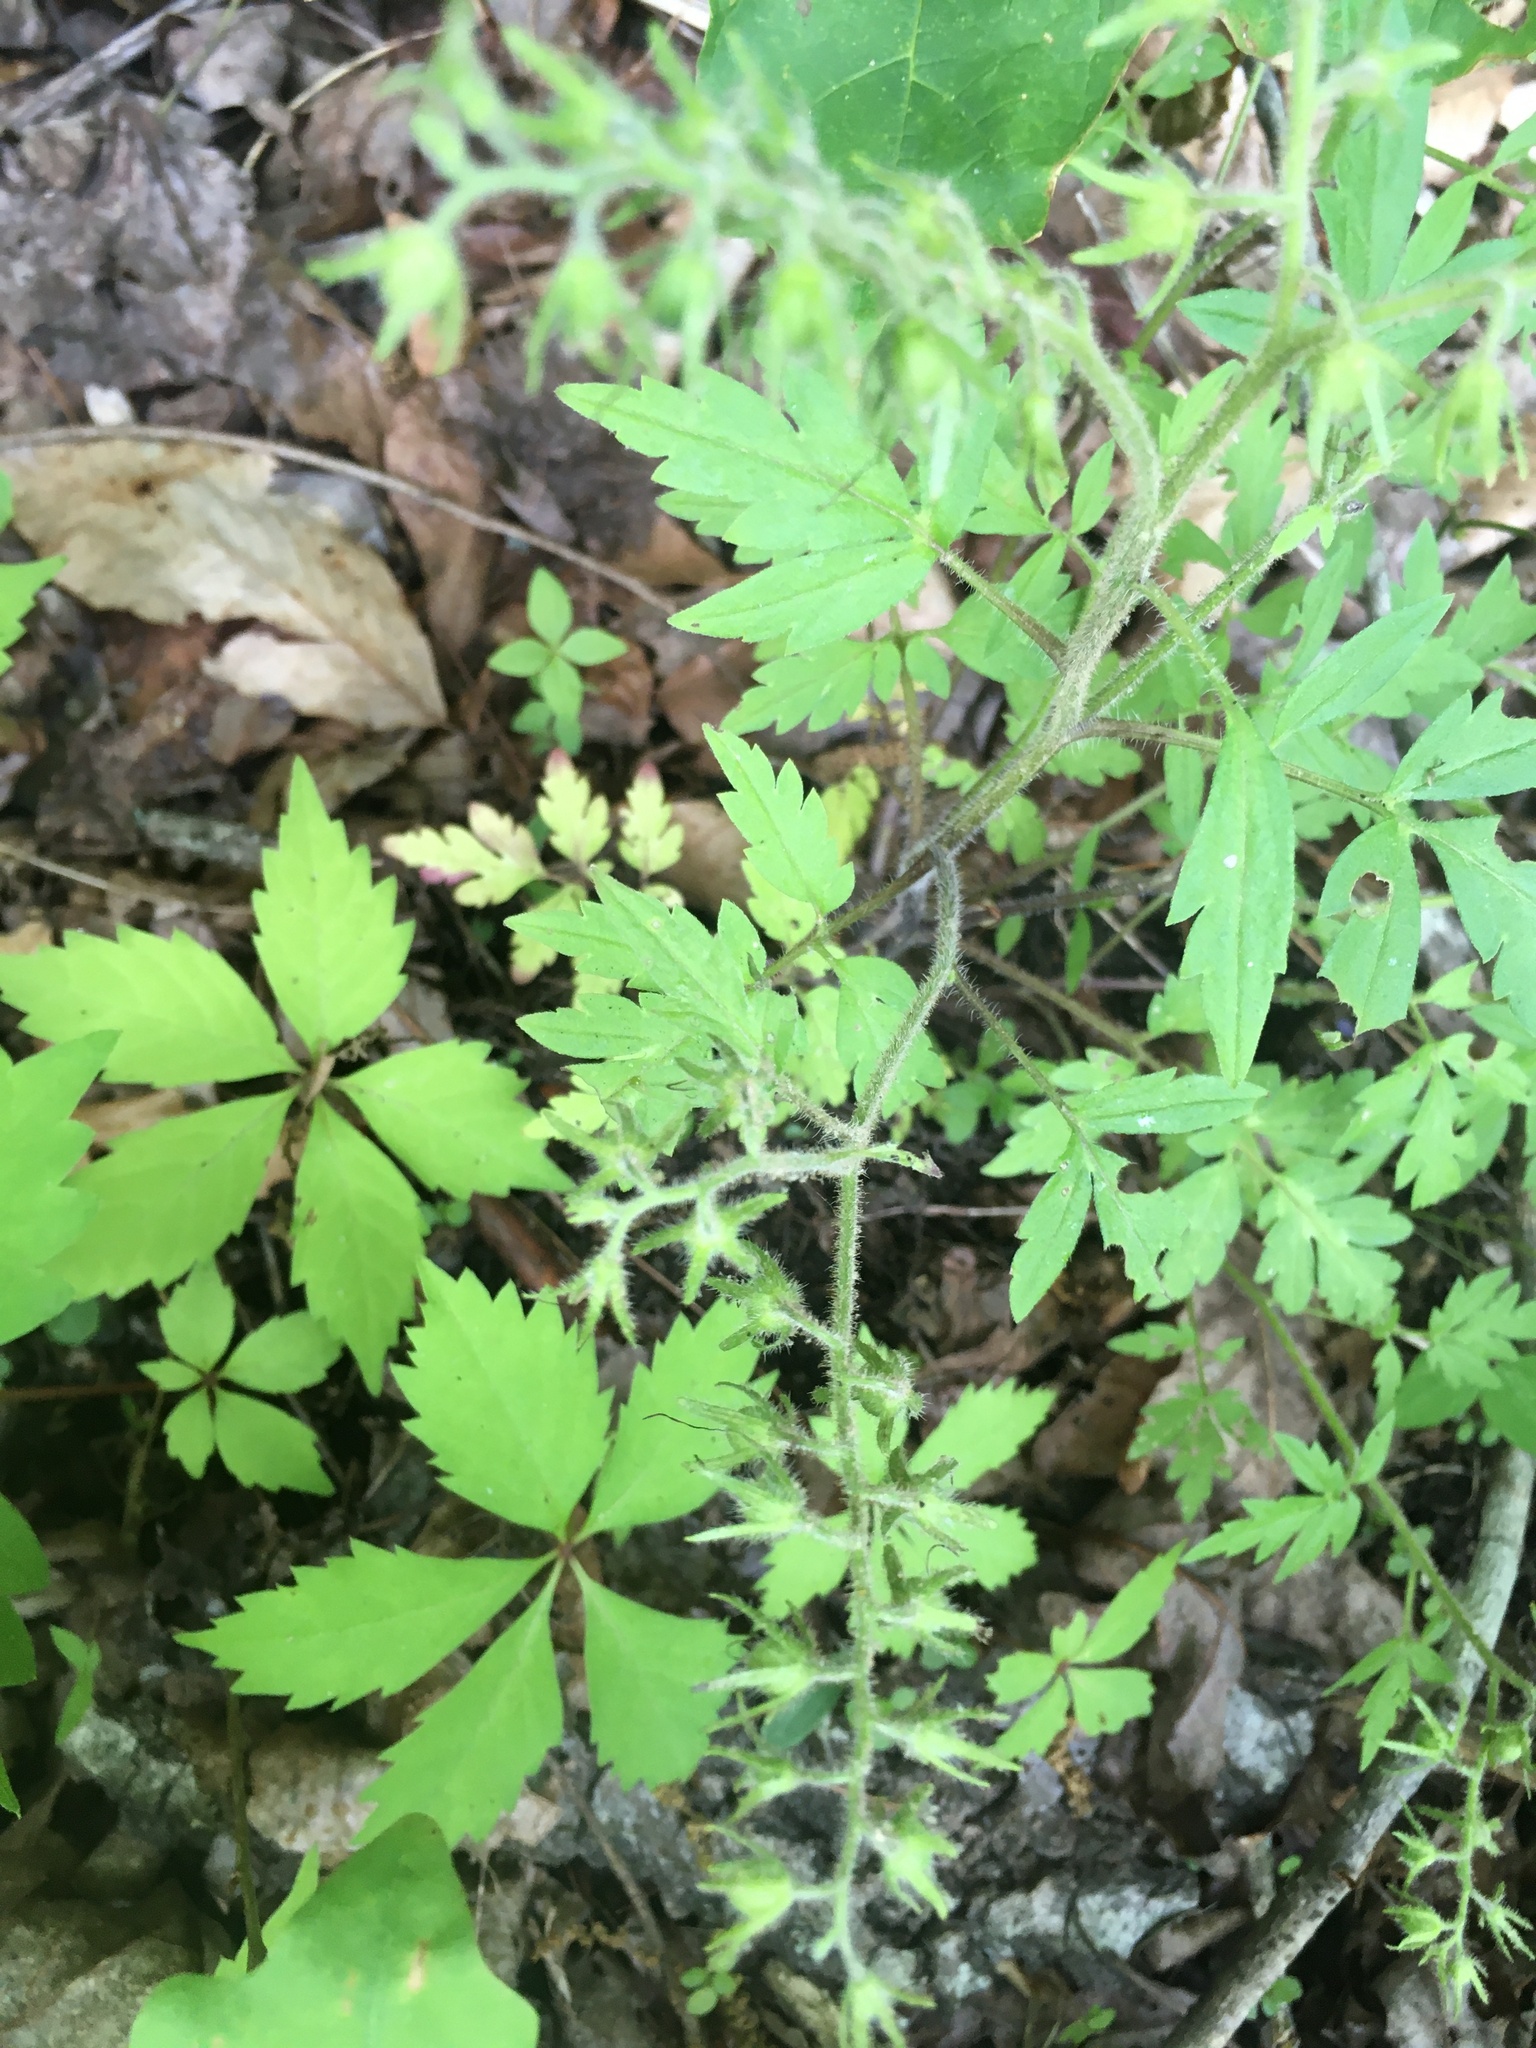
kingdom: Plantae
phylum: Tracheophyta
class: Magnoliopsida
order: Boraginales
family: Hydrophyllaceae
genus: Phacelia
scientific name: Phacelia bipinnatifida
